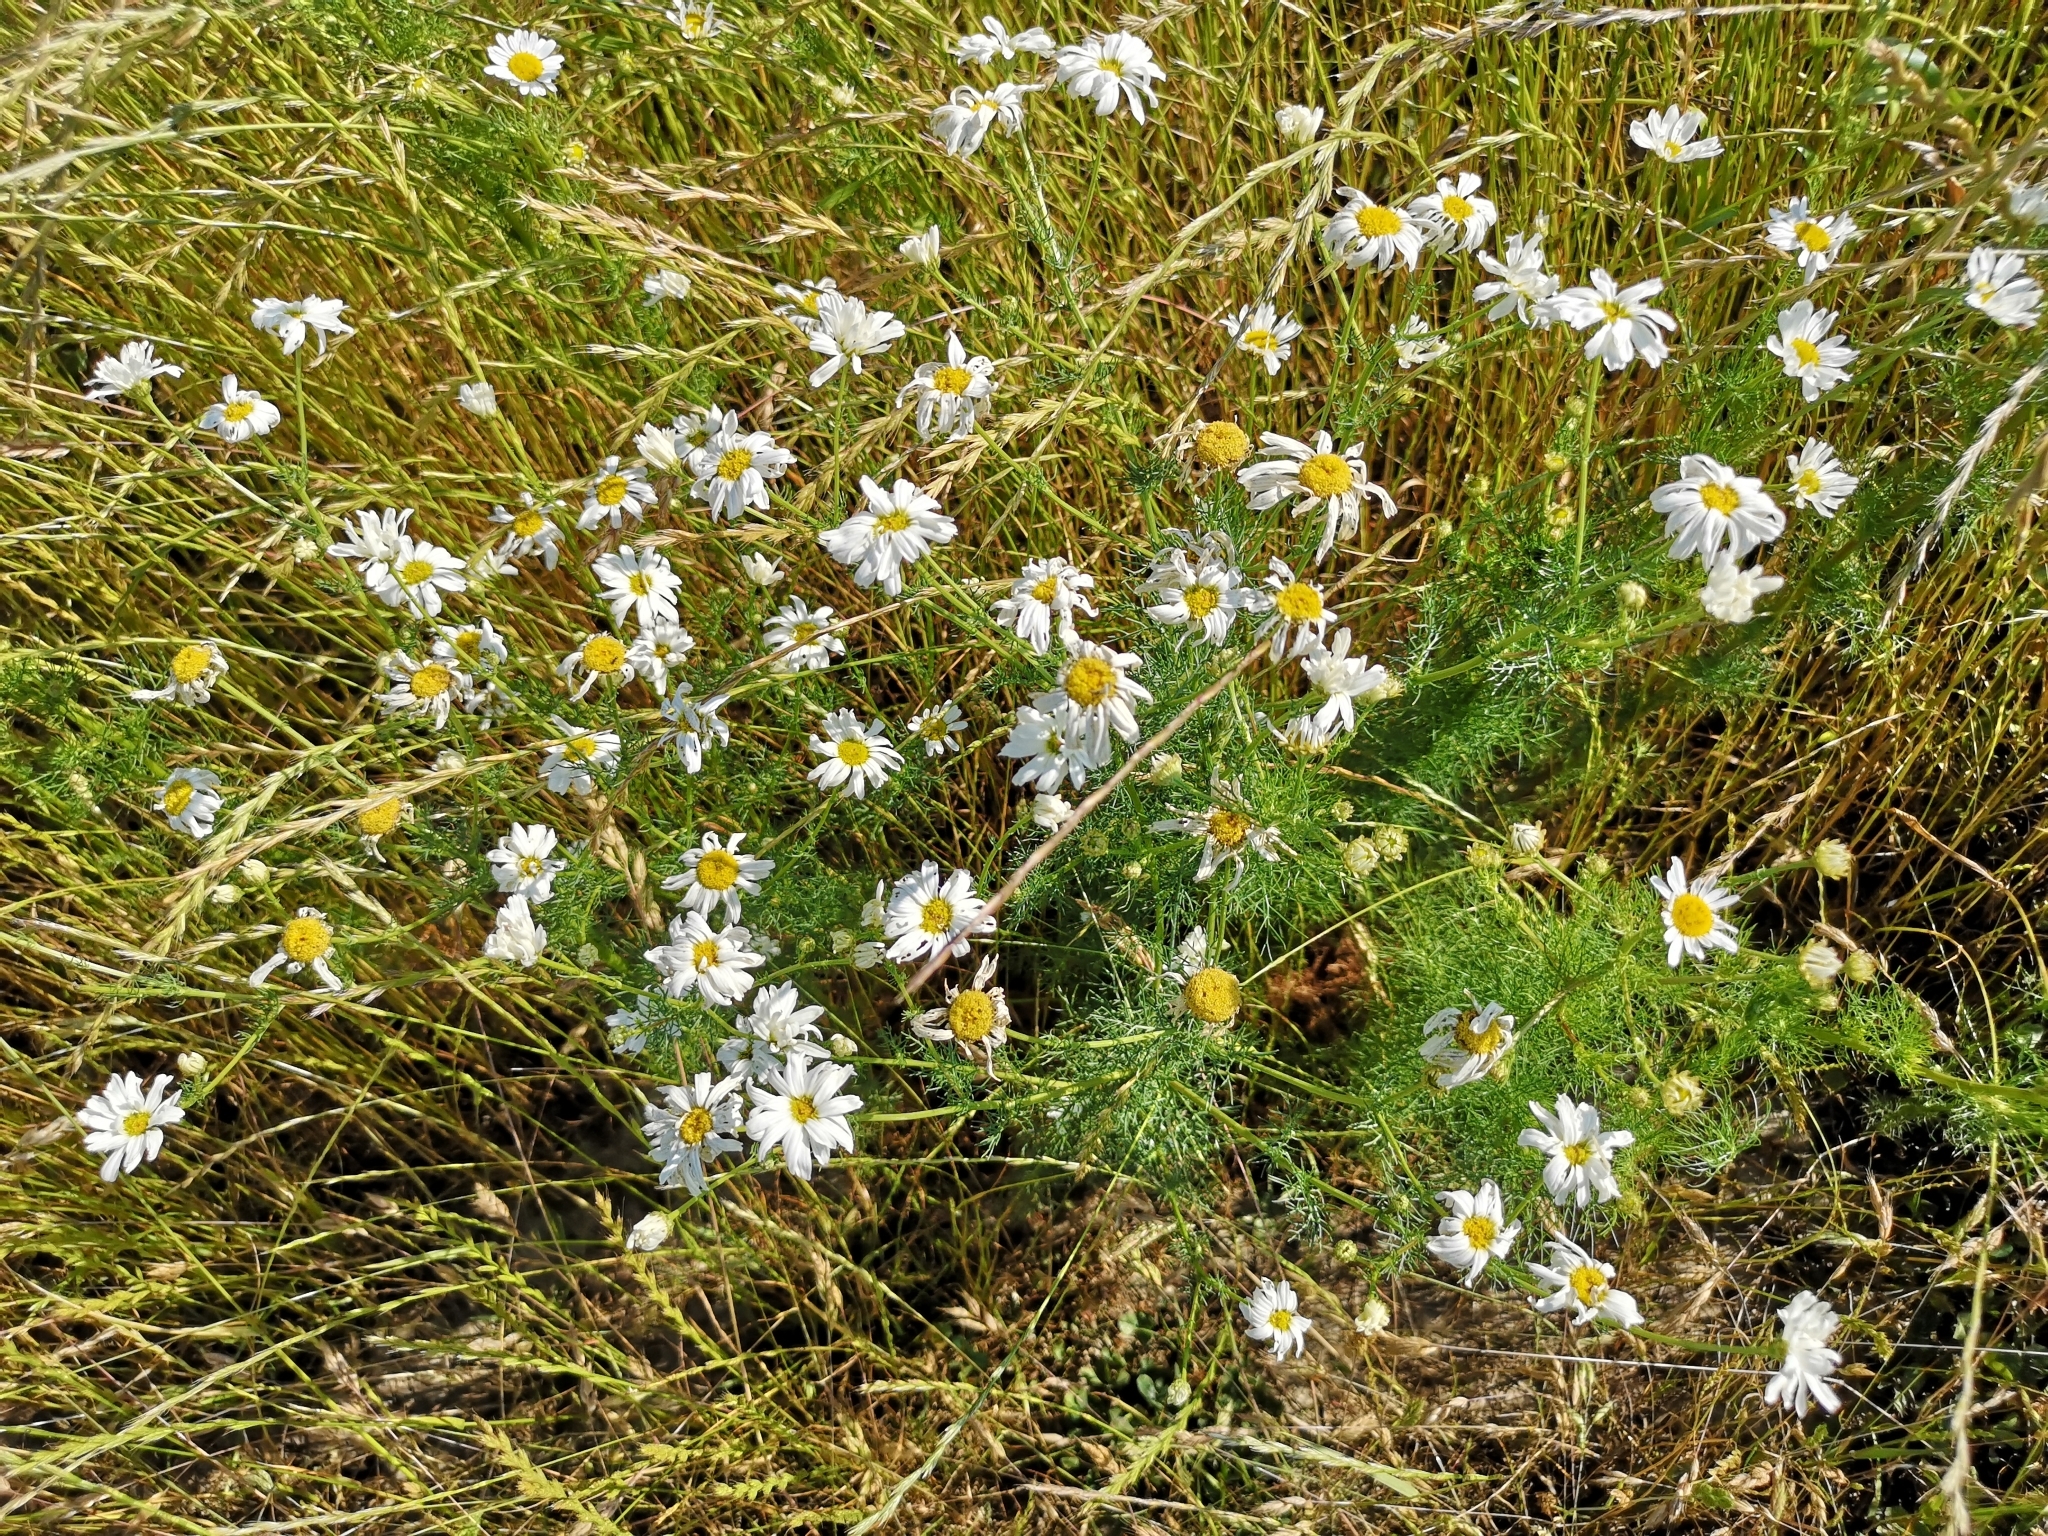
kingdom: Plantae
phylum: Tracheophyta
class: Magnoliopsida
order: Asterales
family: Asteraceae
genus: Tripleurospermum
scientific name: Tripleurospermum inodorum
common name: Scentless mayweed
